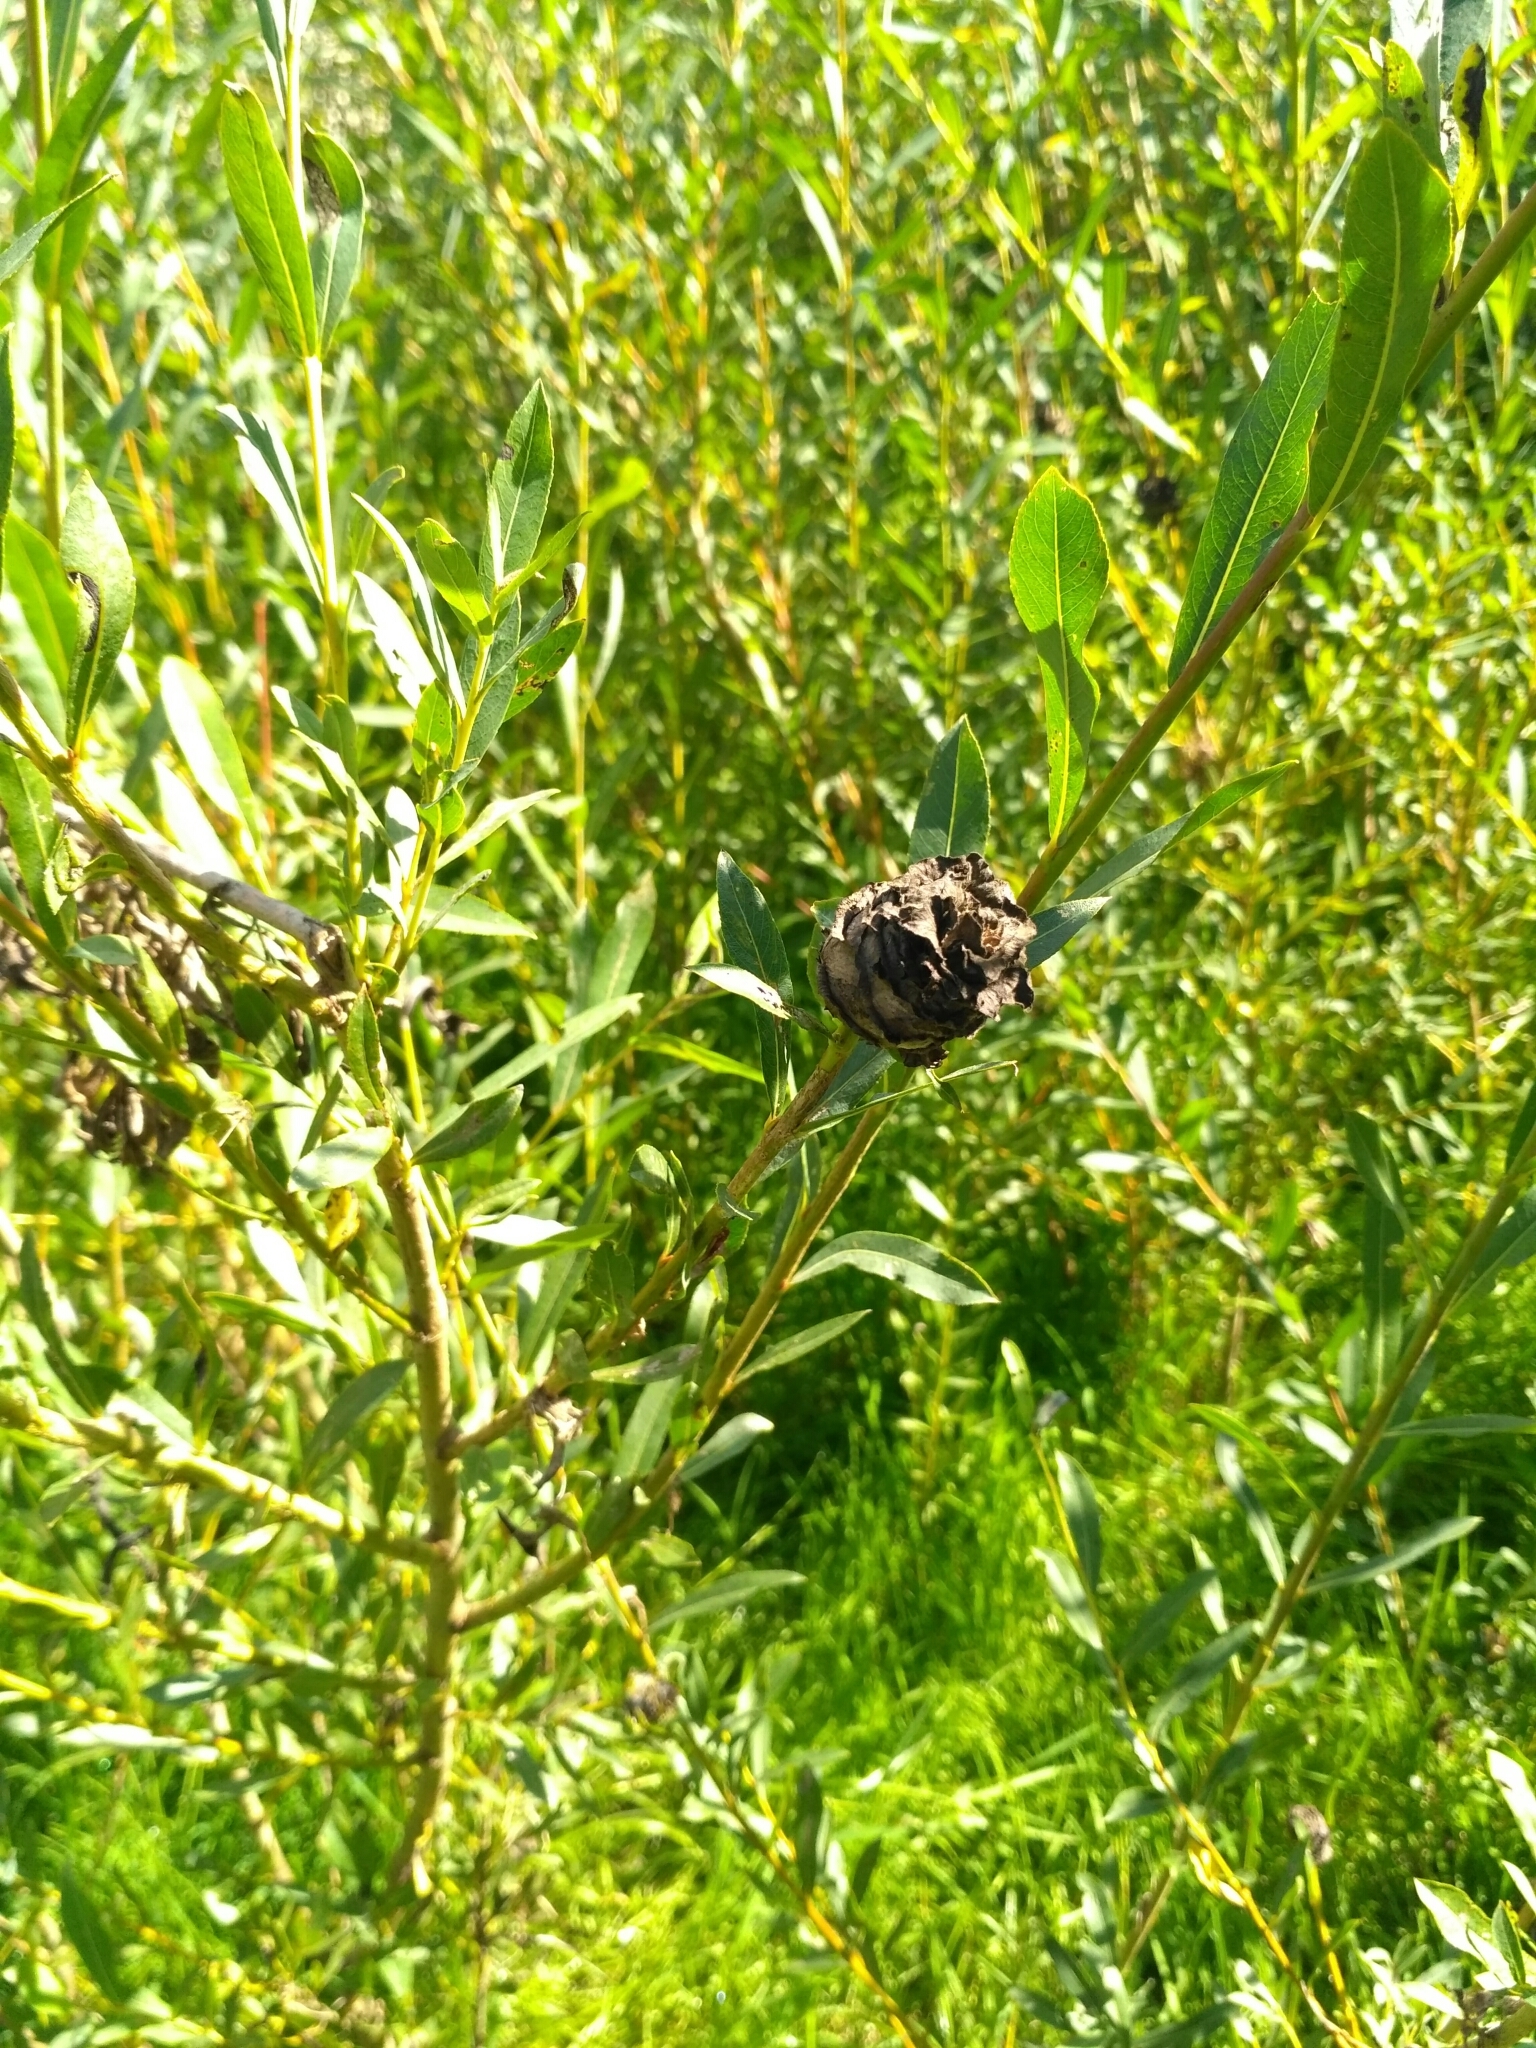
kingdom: Plantae
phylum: Tracheophyta
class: Magnoliopsida
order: Malpighiales
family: Salicaceae
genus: Salix
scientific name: Salix purpurea
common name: Purple willow
